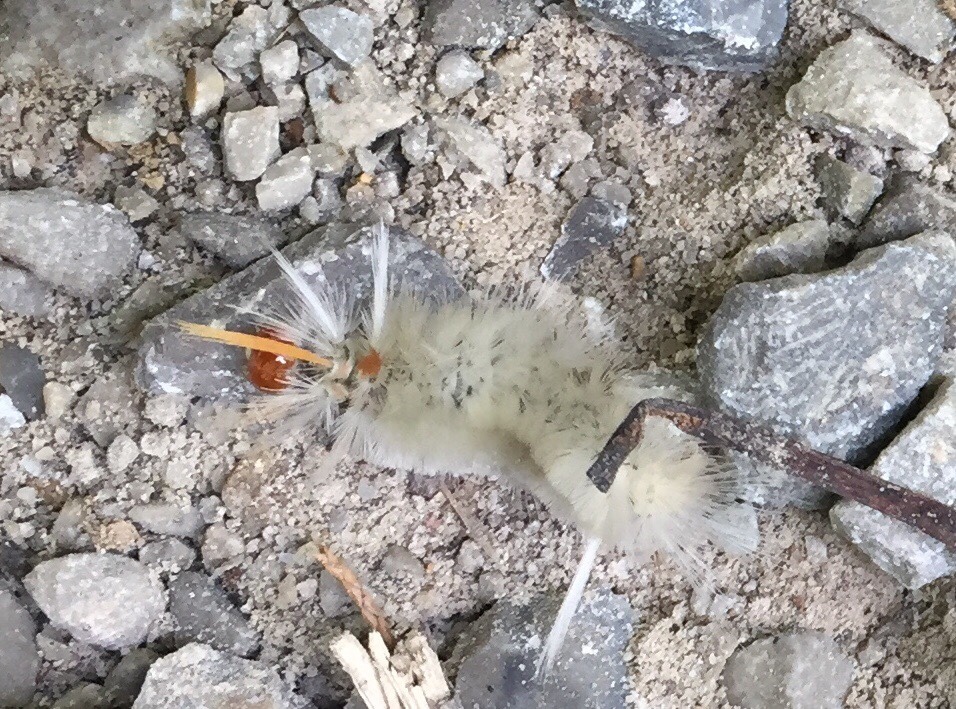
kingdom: Animalia
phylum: Arthropoda
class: Insecta
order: Lepidoptera
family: Erebidae
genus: Halysidota
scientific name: Halysidota harrisii
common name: Sycamore tussock moth
